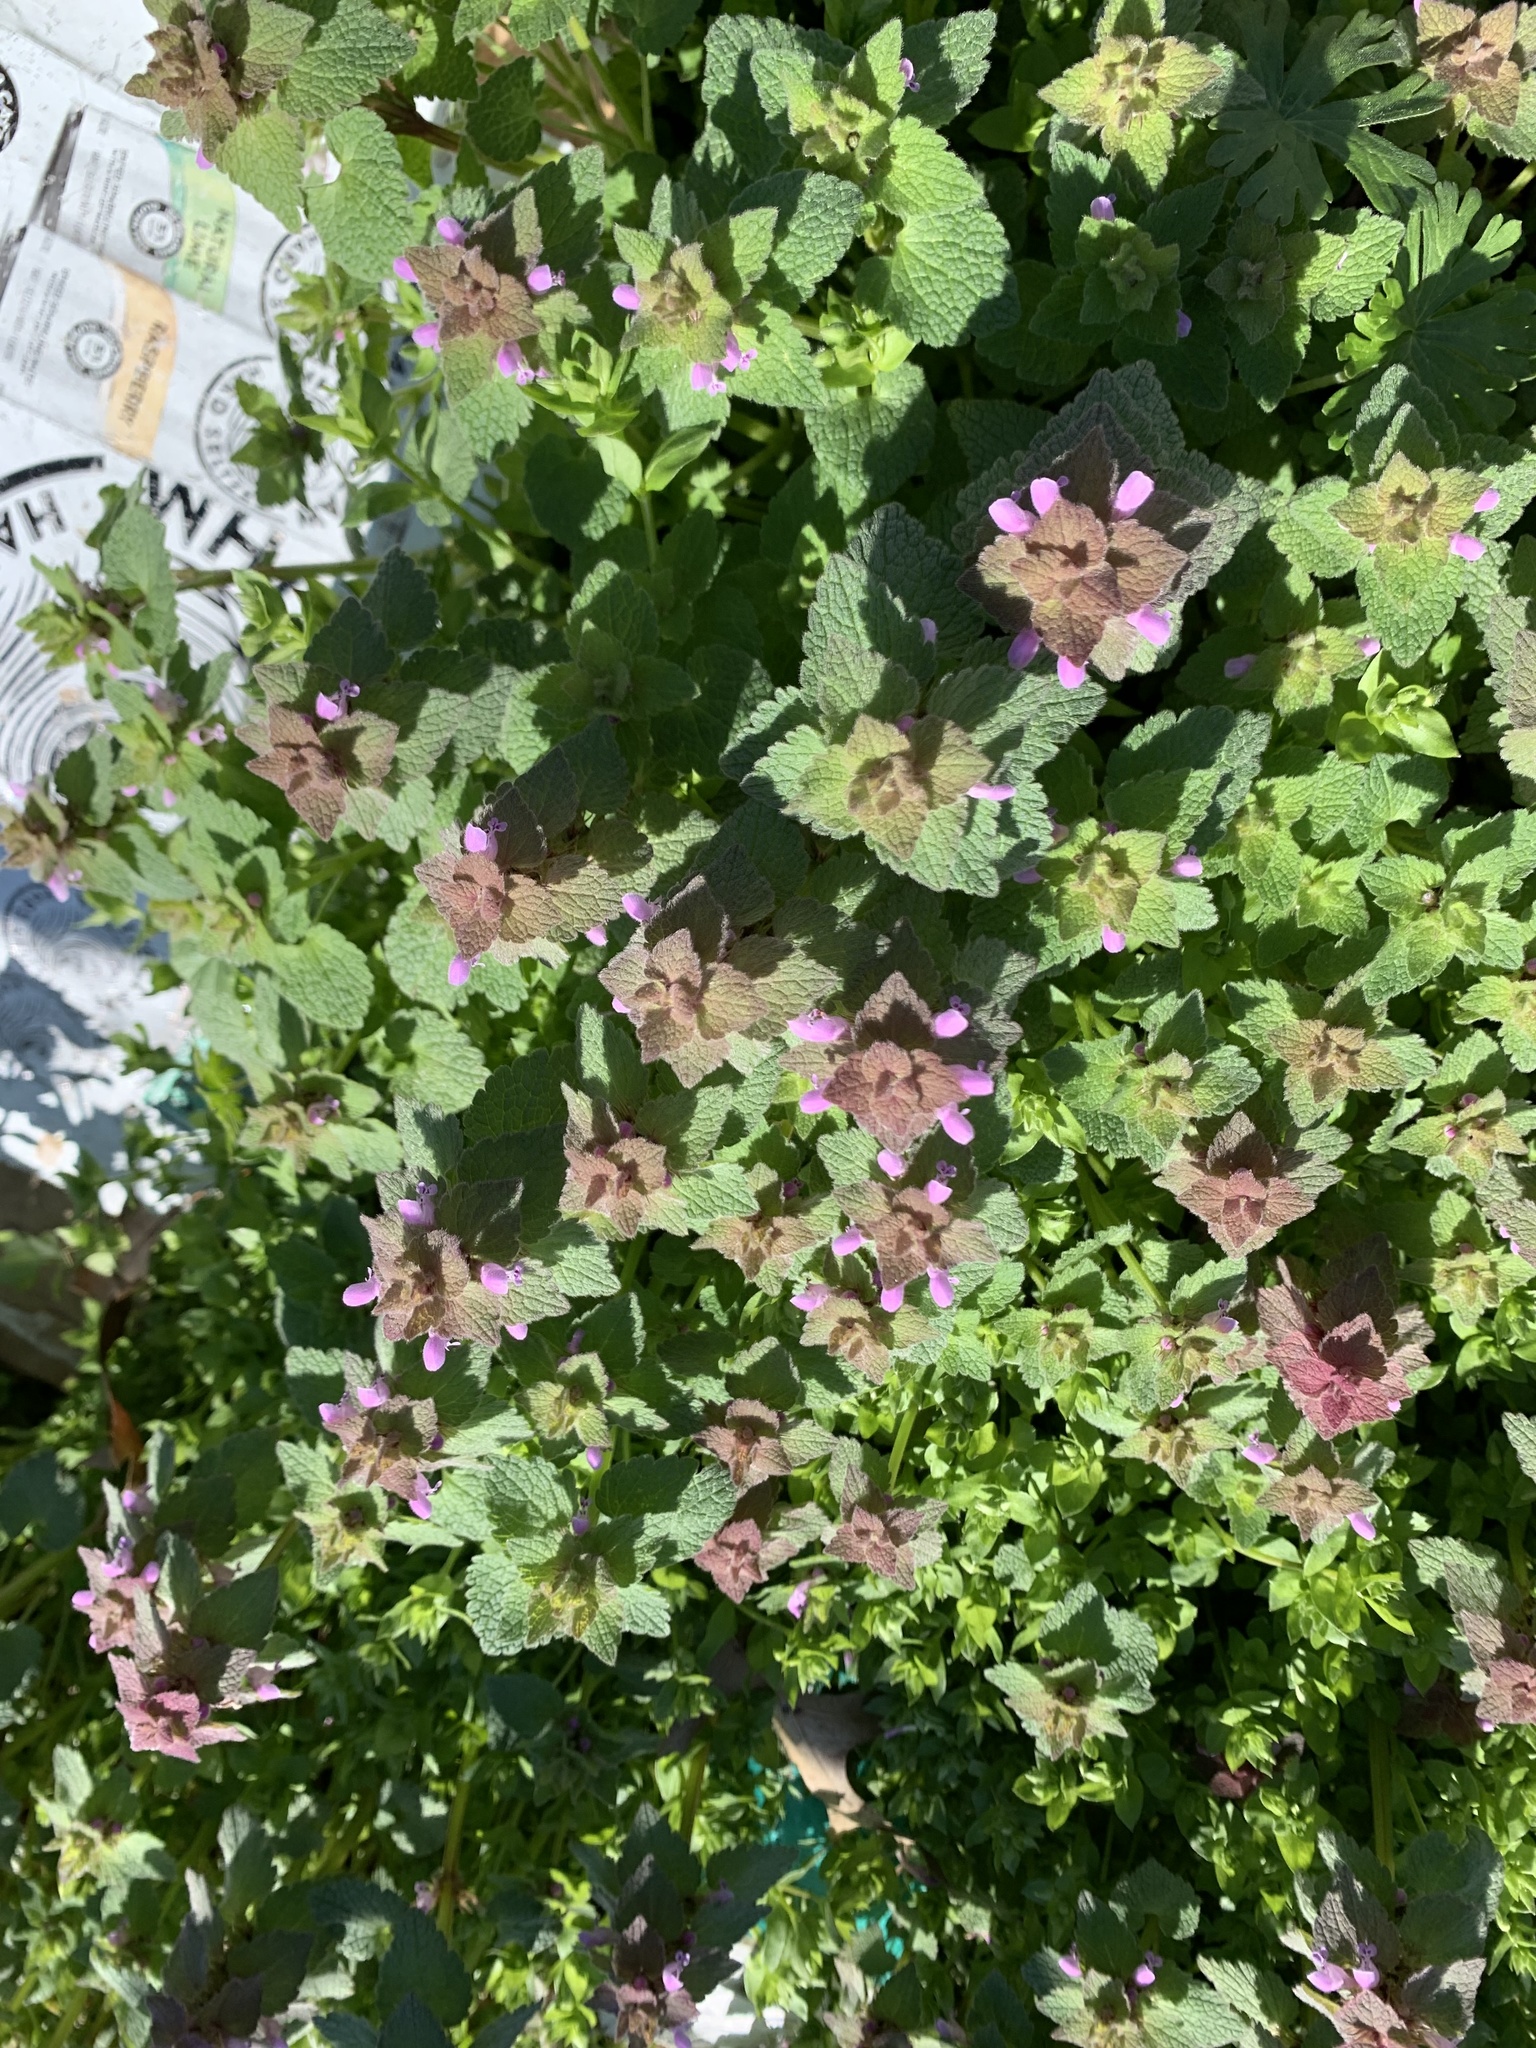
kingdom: Plantae
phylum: Tracheophyta
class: Magnoliopsida
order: Lamiales
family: Lamiaceae
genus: Lamium
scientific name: Lamium purpureum
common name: Red dead-nettle
